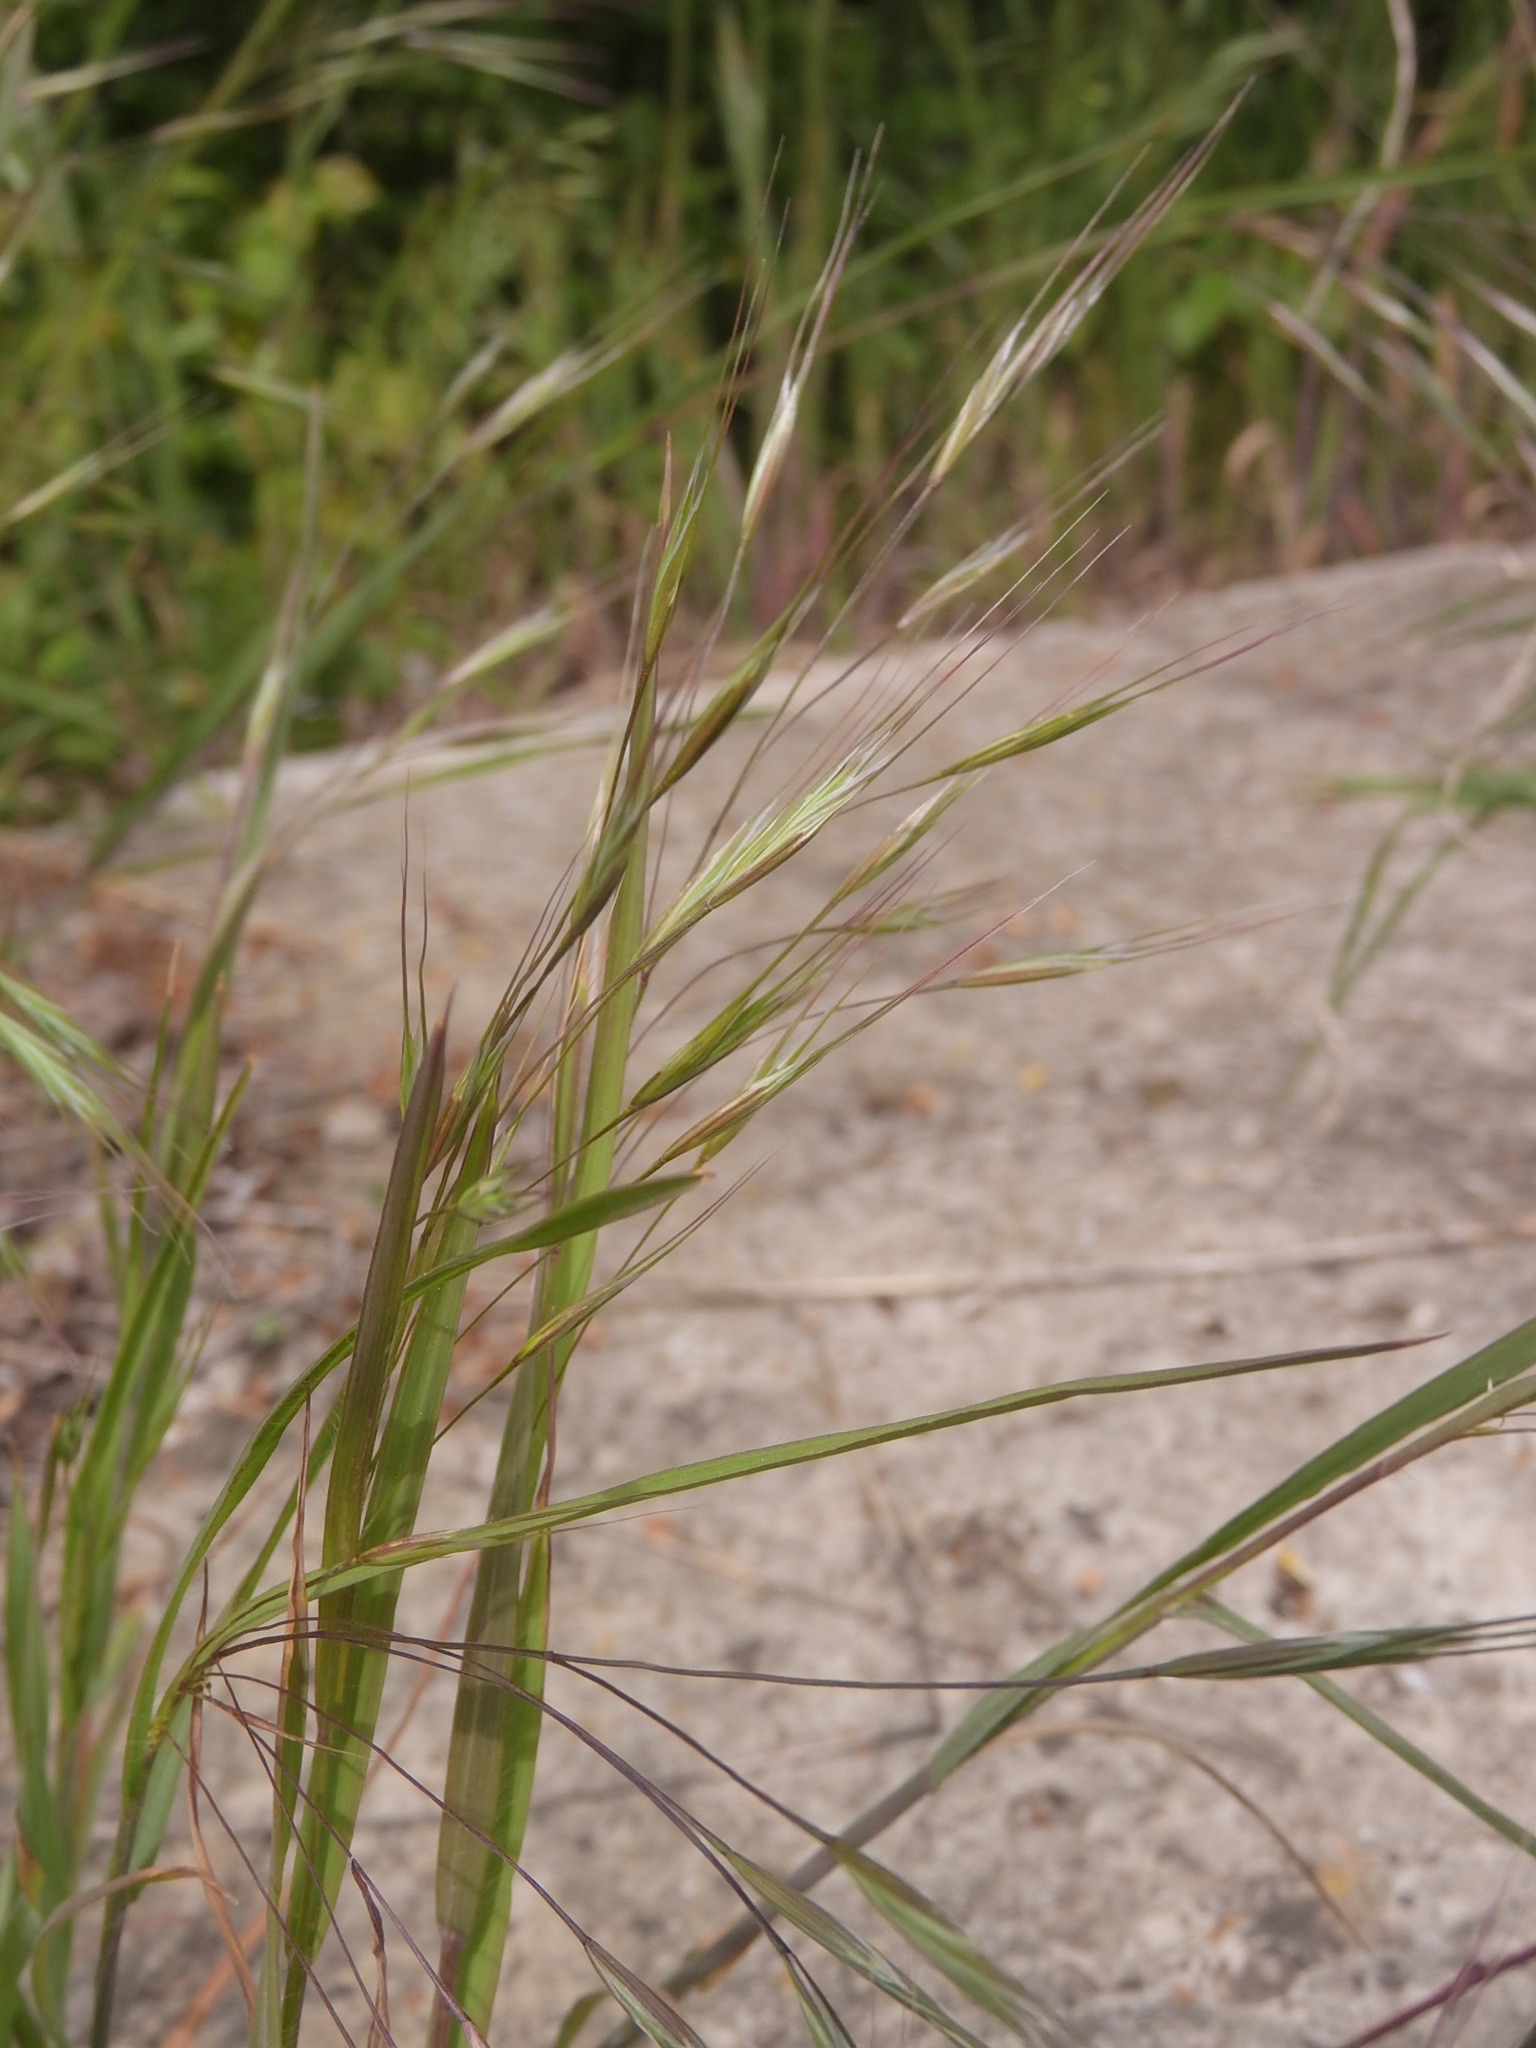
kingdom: Plantae
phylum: Tracheophyta
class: Liliopsida
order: Poales
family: Poaceae
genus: Bromus
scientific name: Bromus sterilis
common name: Poverty brome
